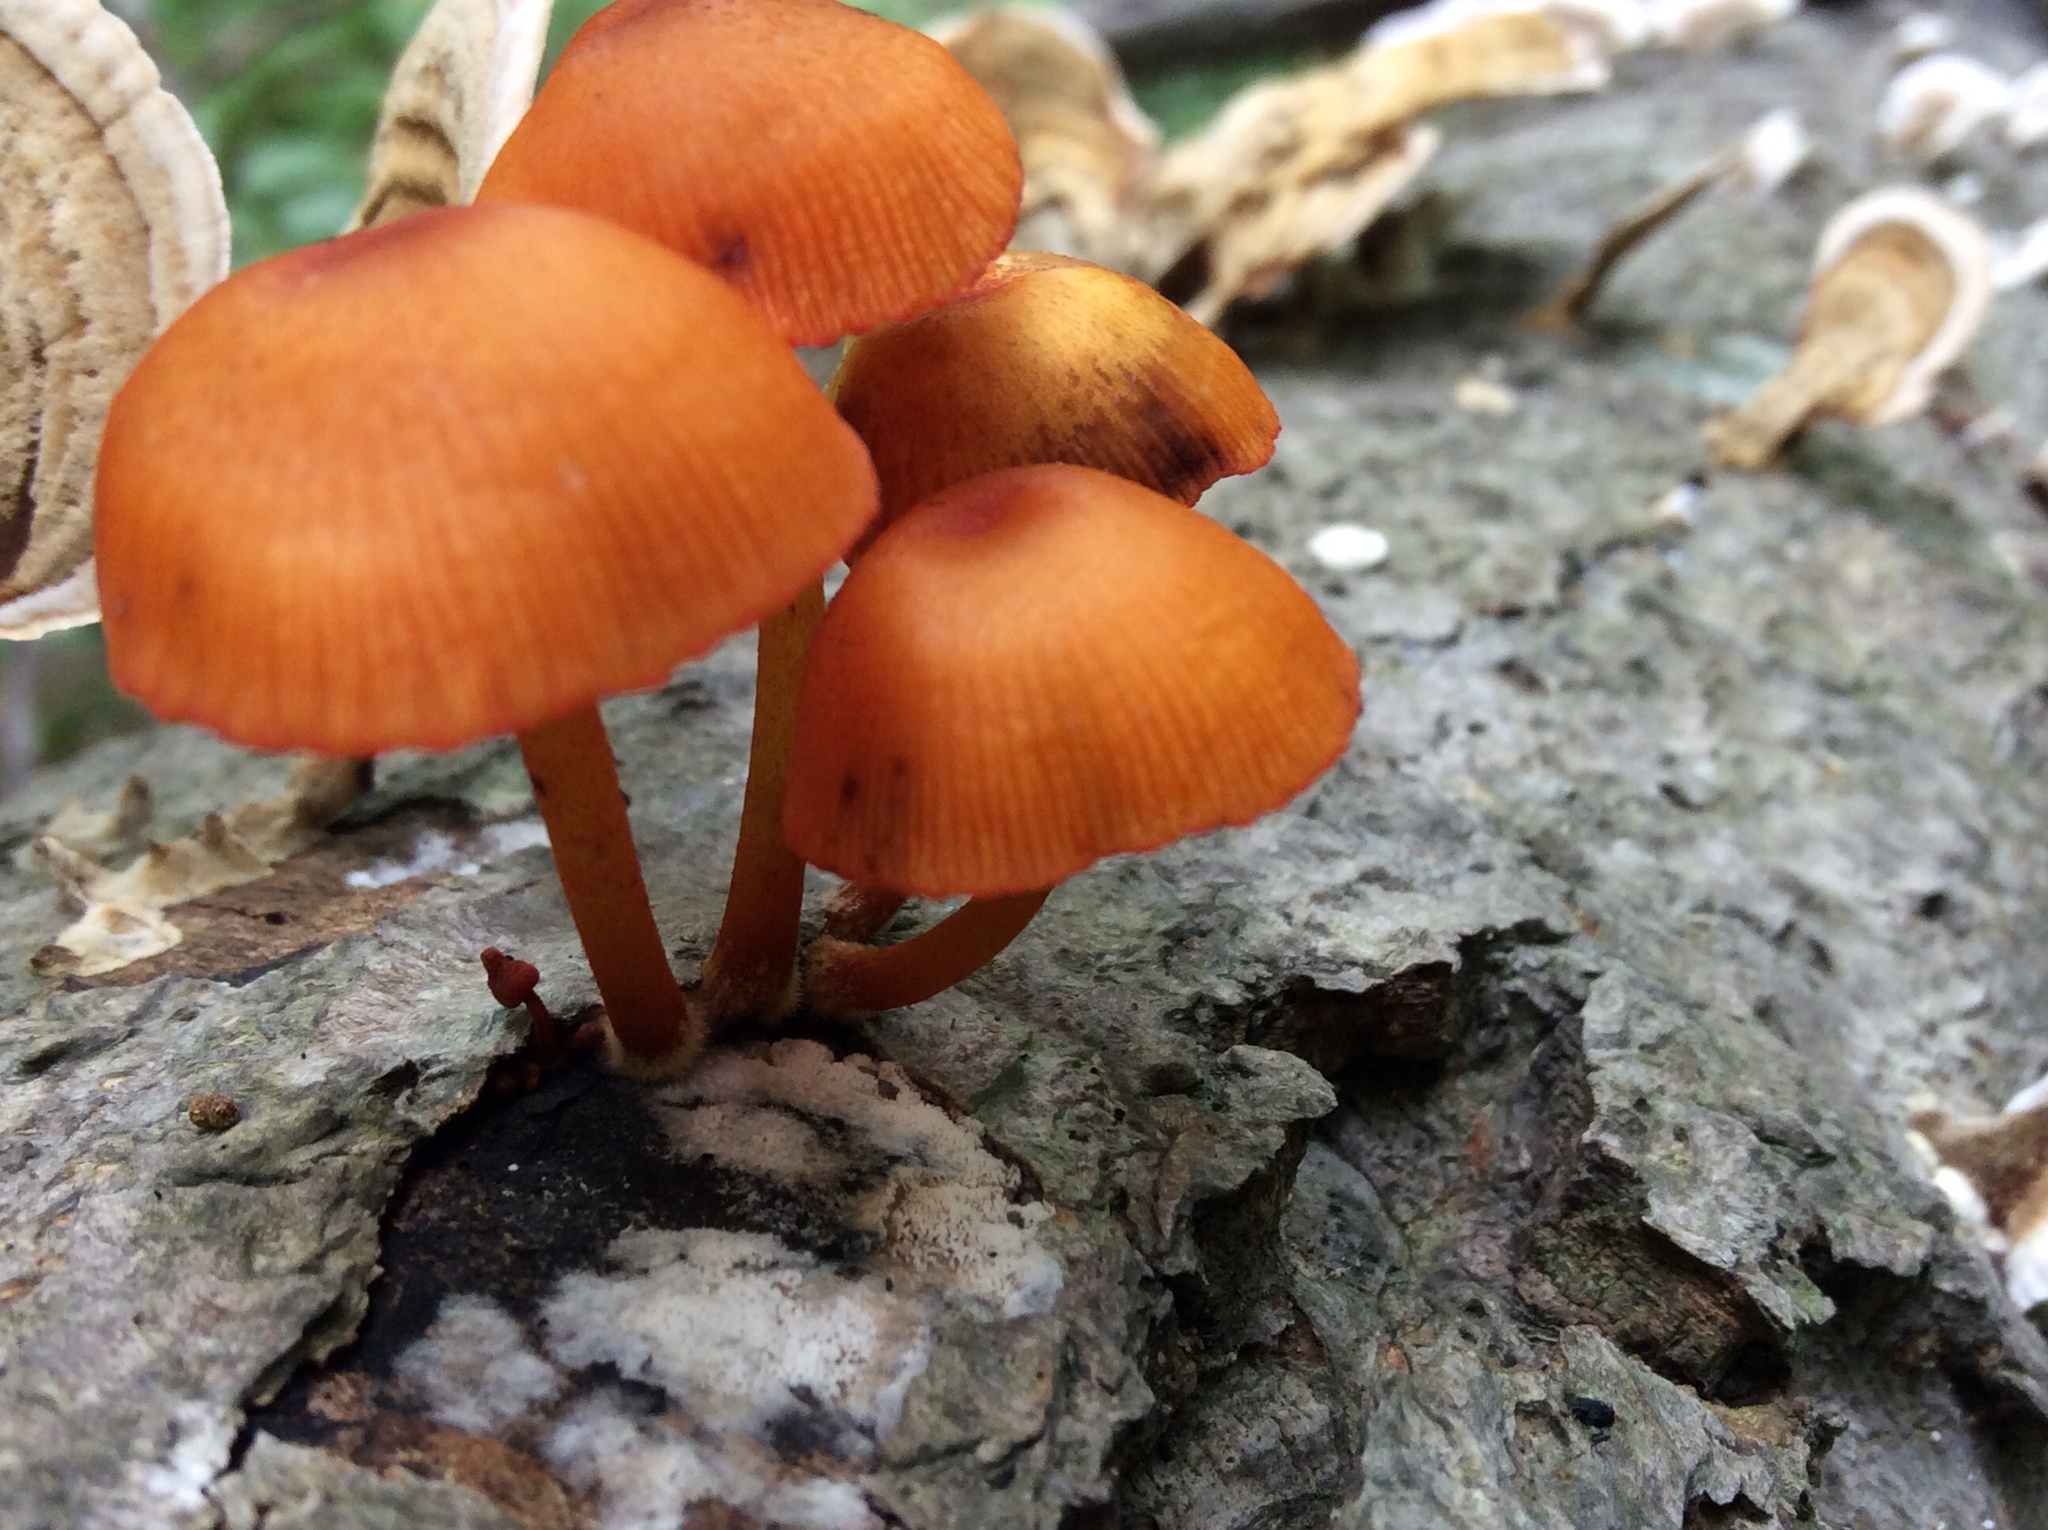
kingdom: Fungi
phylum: Basidiomycota
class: Agaricomycetes
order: Agaricales
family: Mycenaceae
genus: Mycena
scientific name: Mycena leaiana
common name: Orange mycena
